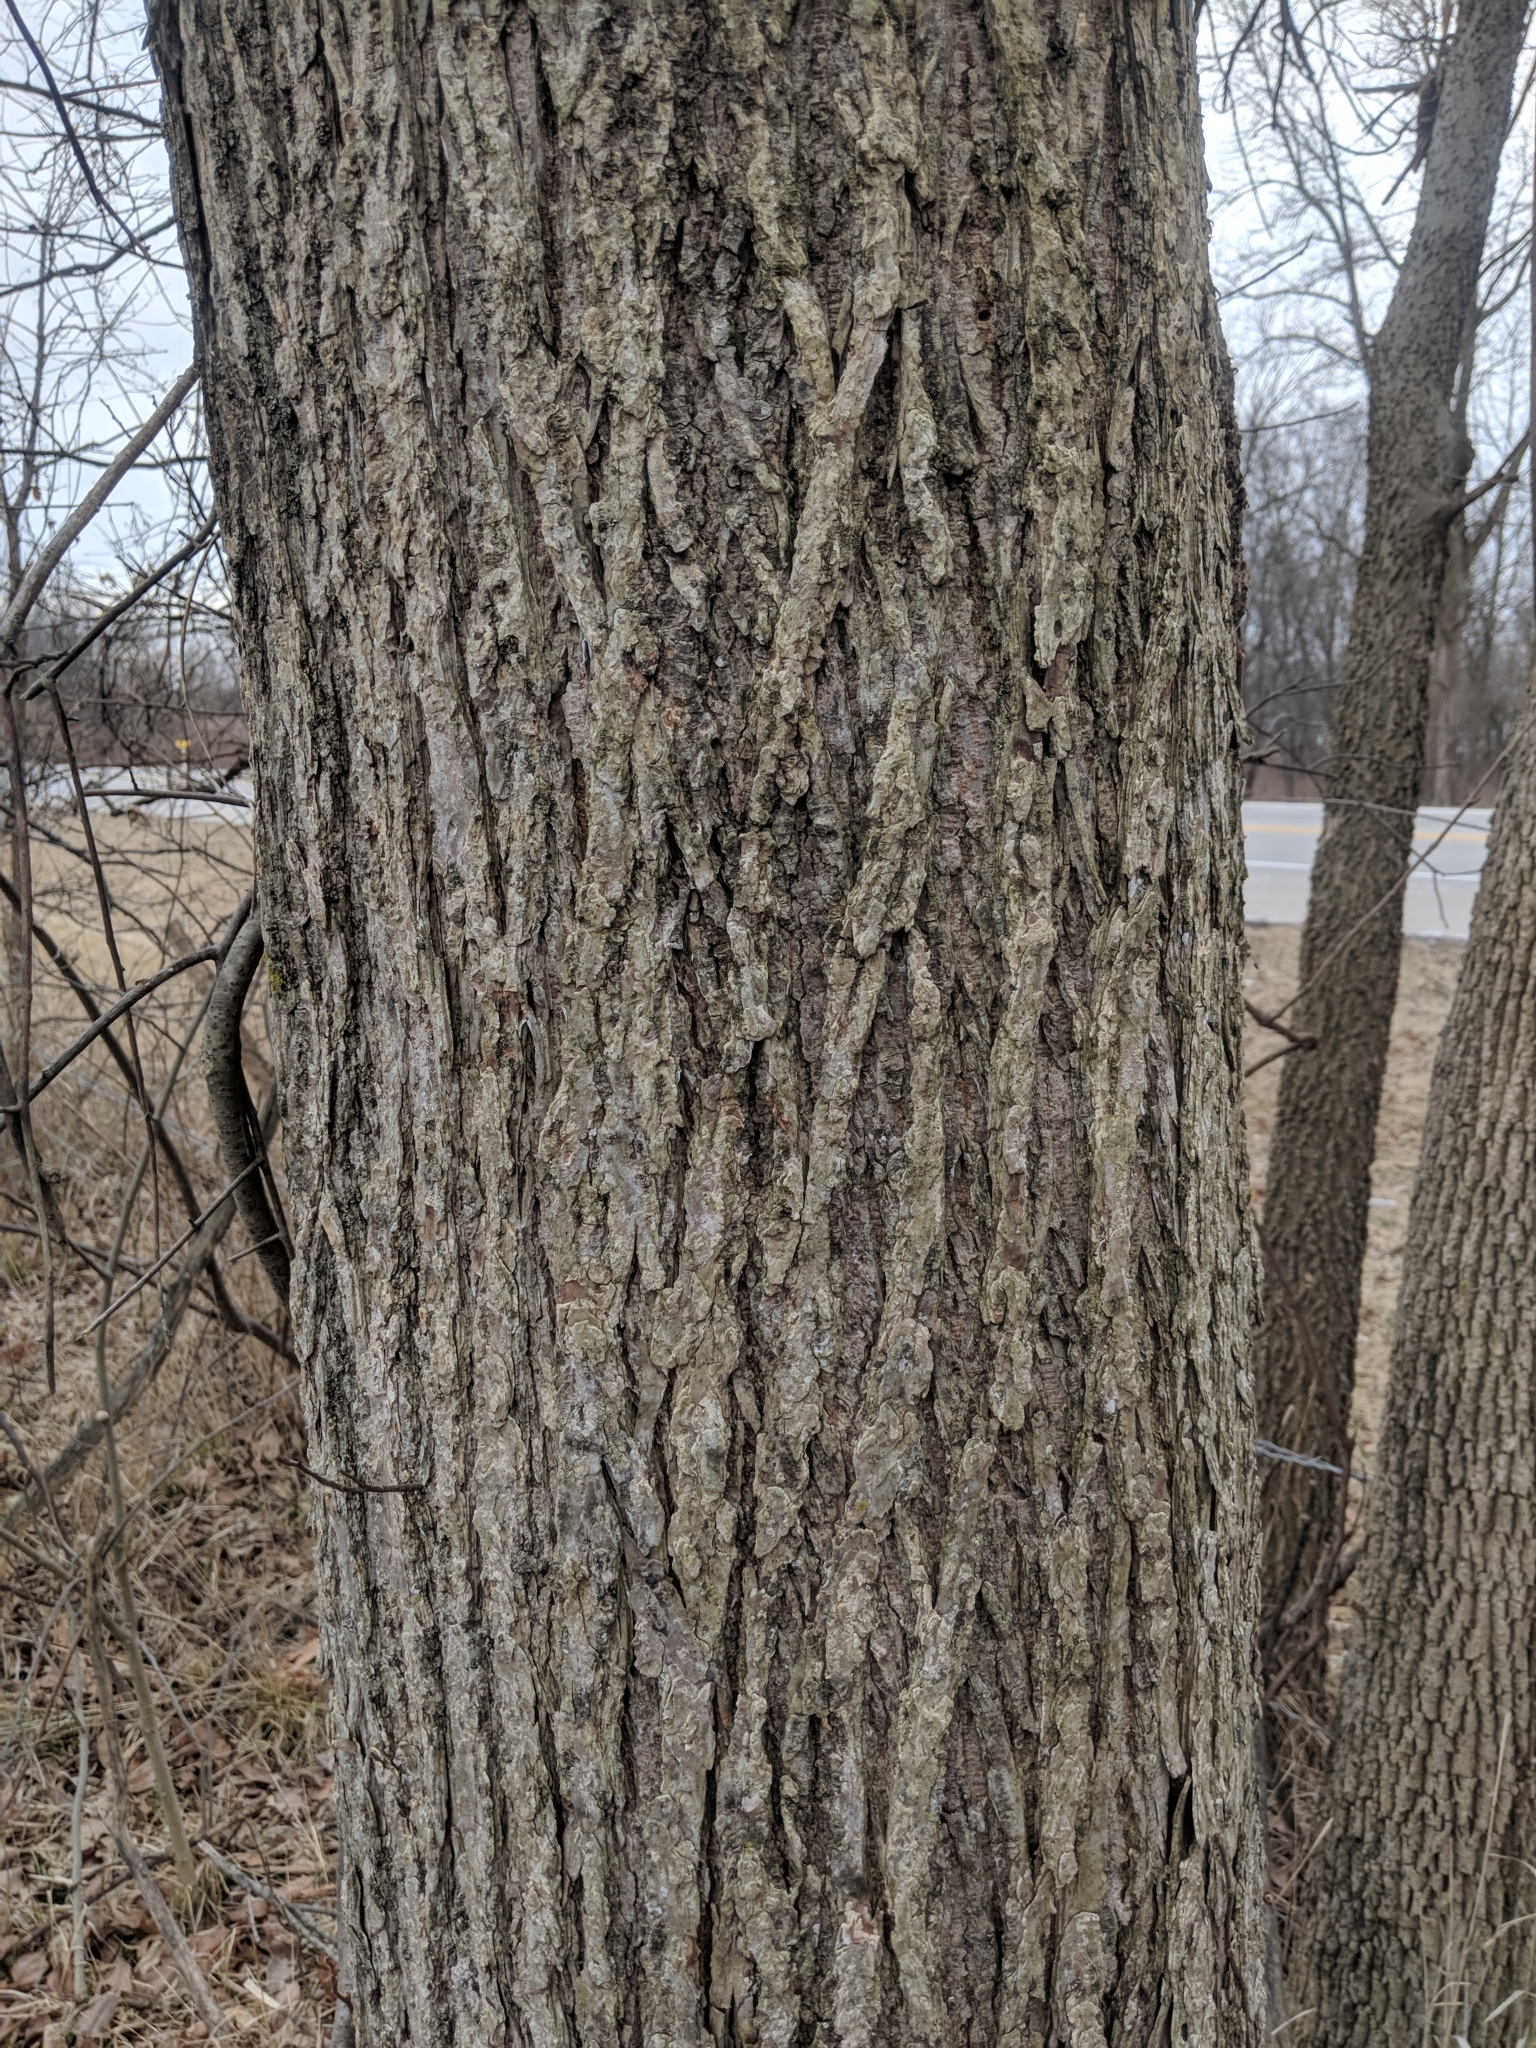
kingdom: Plantae
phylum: Tracheophyta
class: Magnoliopsida
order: Rosales
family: Ulmaceae
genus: Ulmus
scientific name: Ulmus americana
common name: American elm
